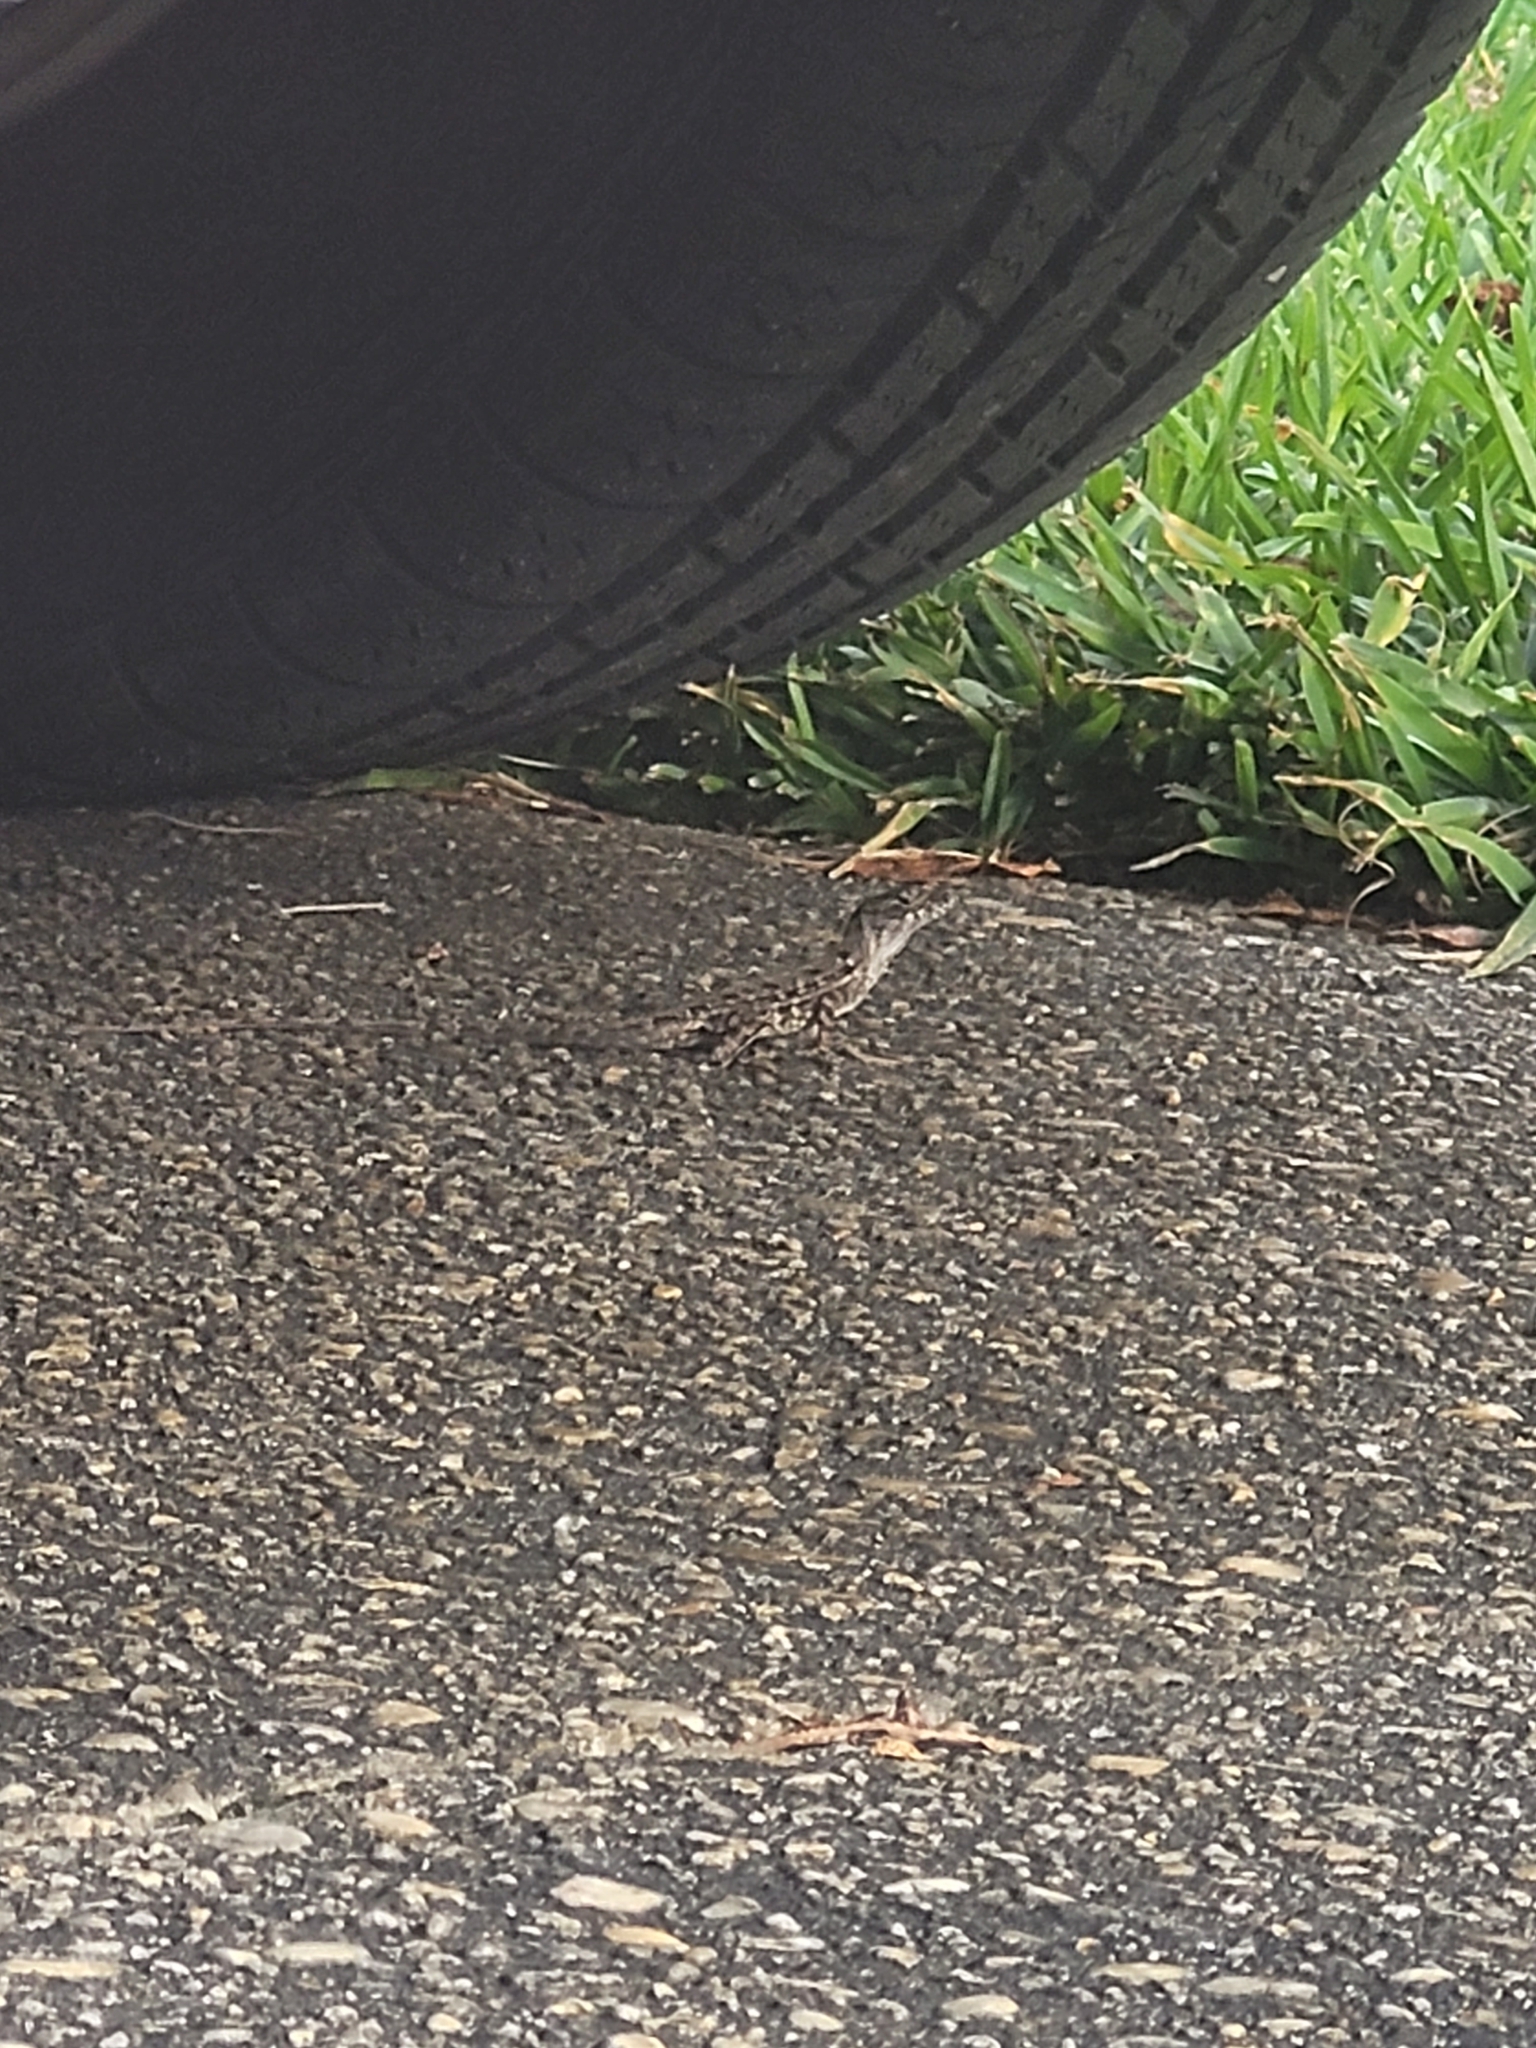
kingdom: Animalia
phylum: Chordata
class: Squamata
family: Dactyloidae
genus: Anolis
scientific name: Anolis sagrei
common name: Brown anole
